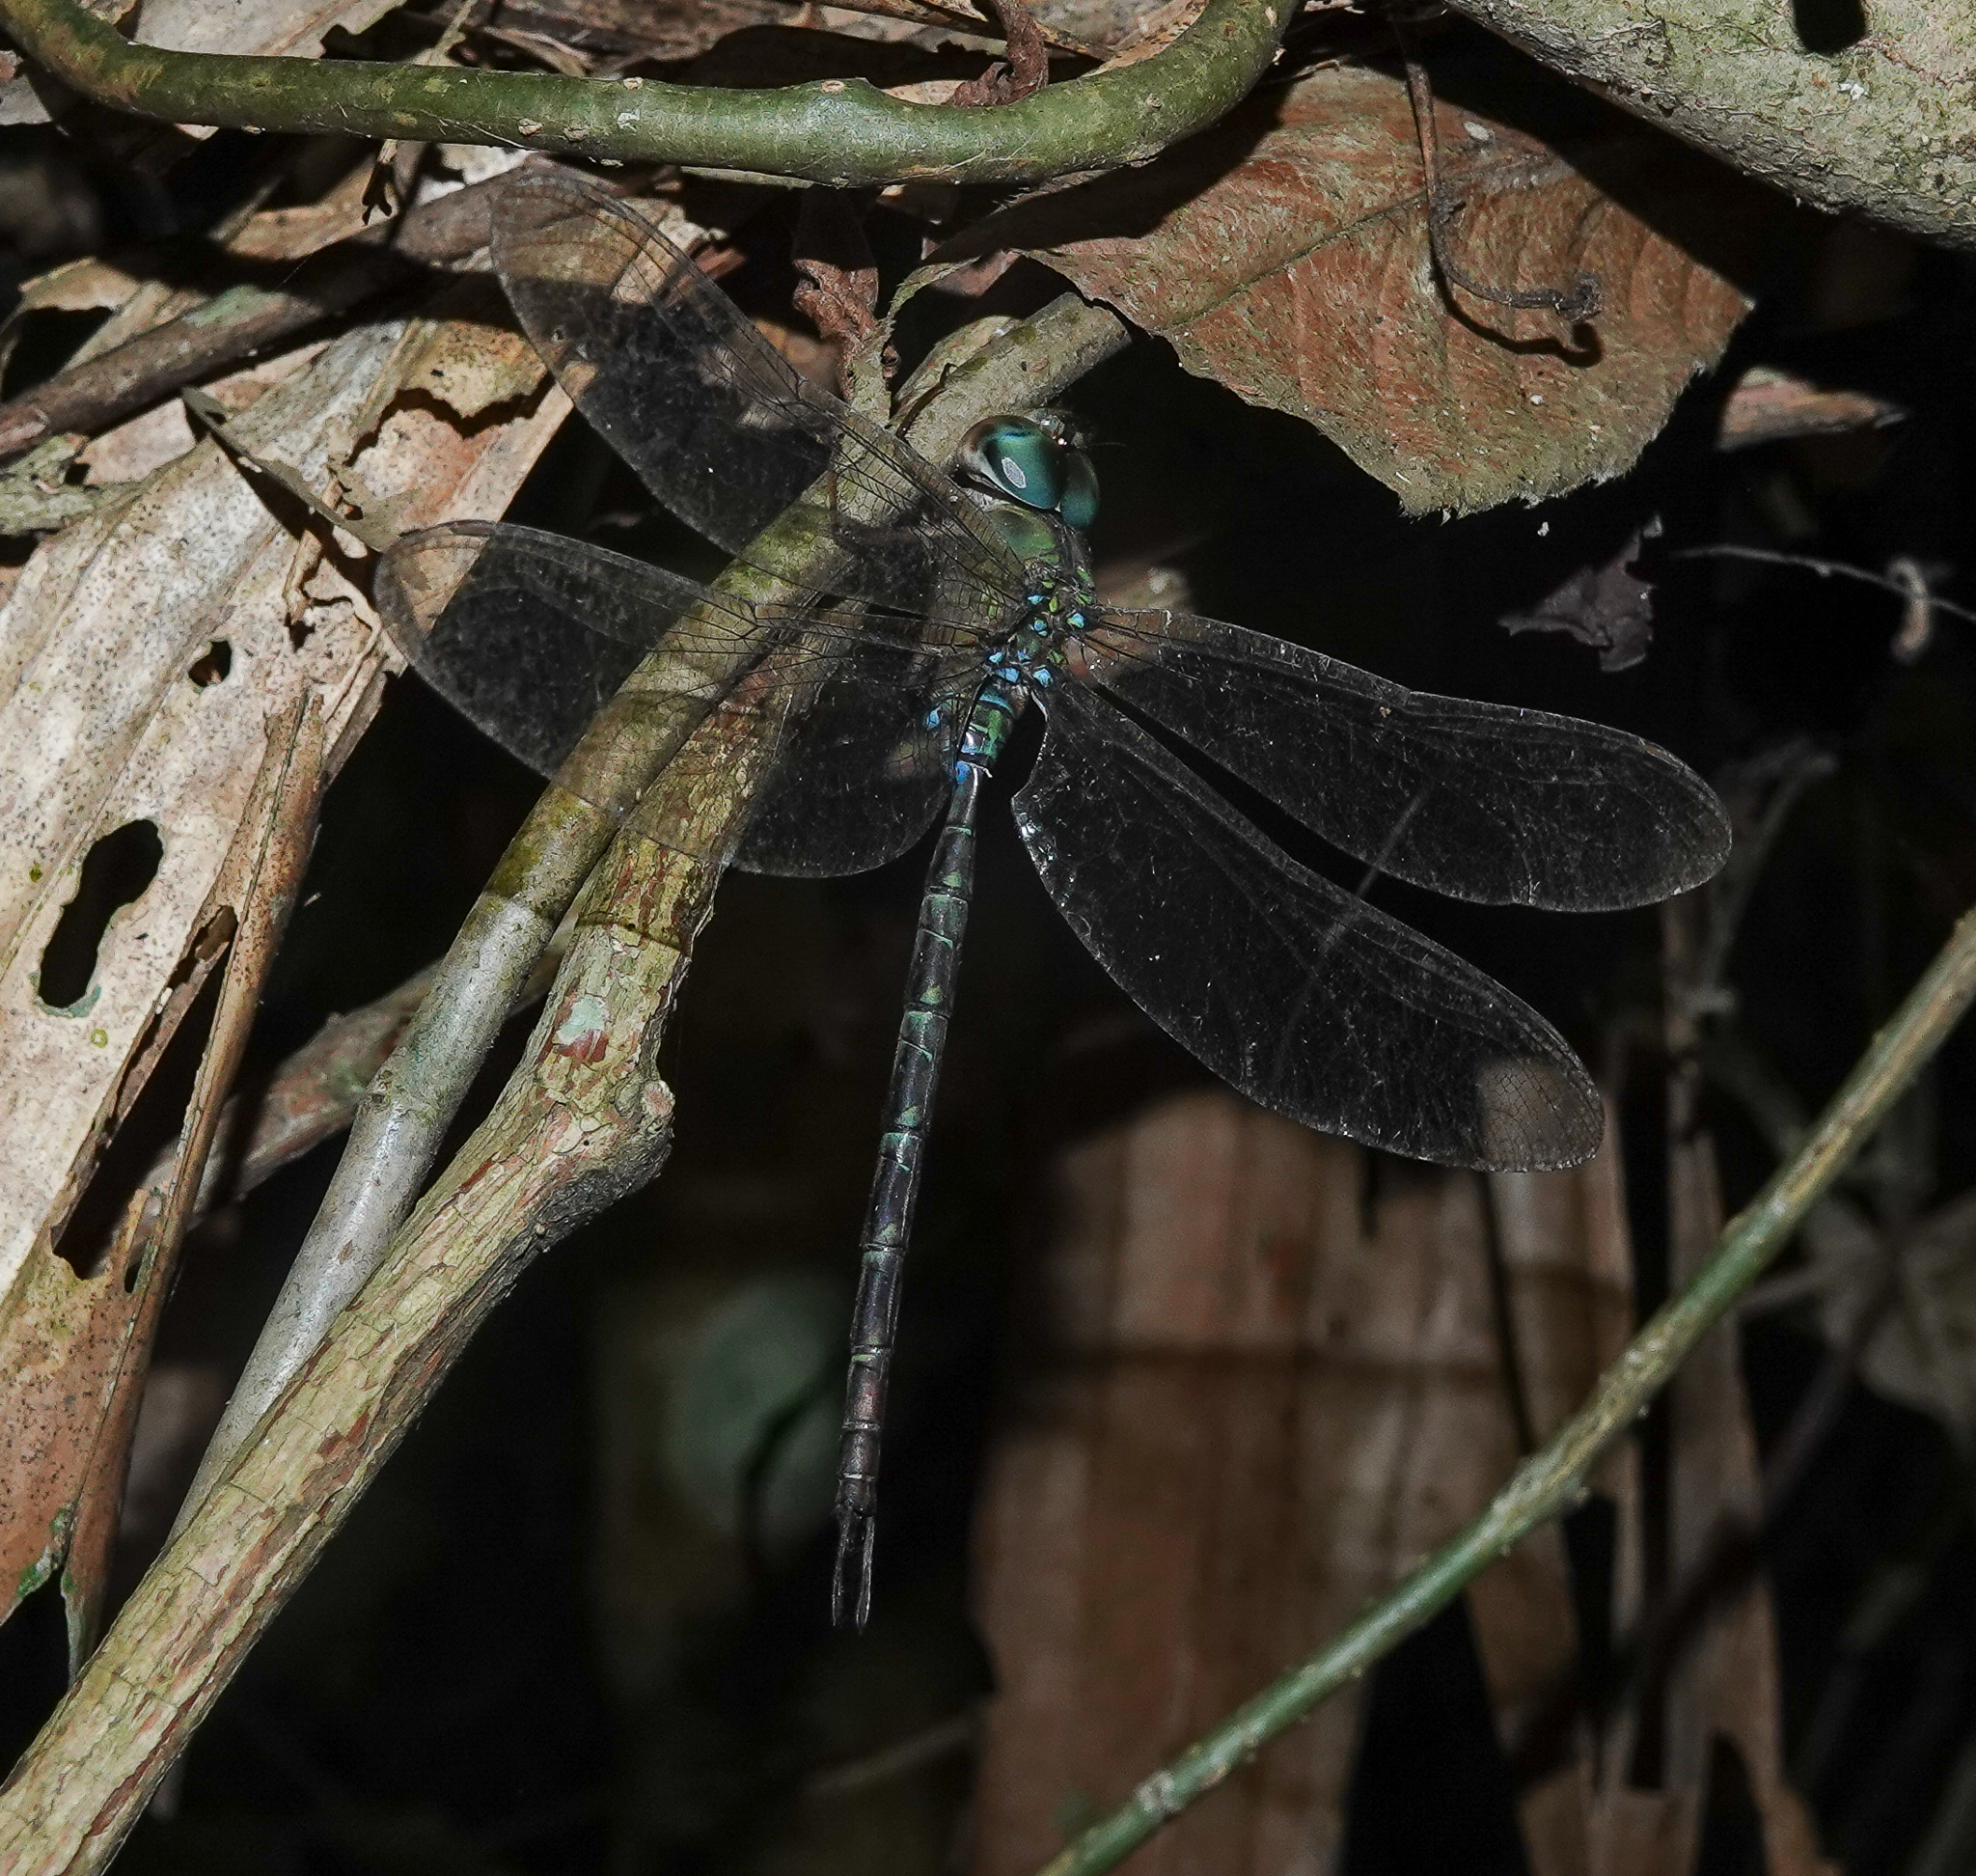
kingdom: Animalia
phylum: Arthropoda
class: Insecta
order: Odonata
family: Aeshnidae
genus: Gynacantha
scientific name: Gynacantha khasiaca
